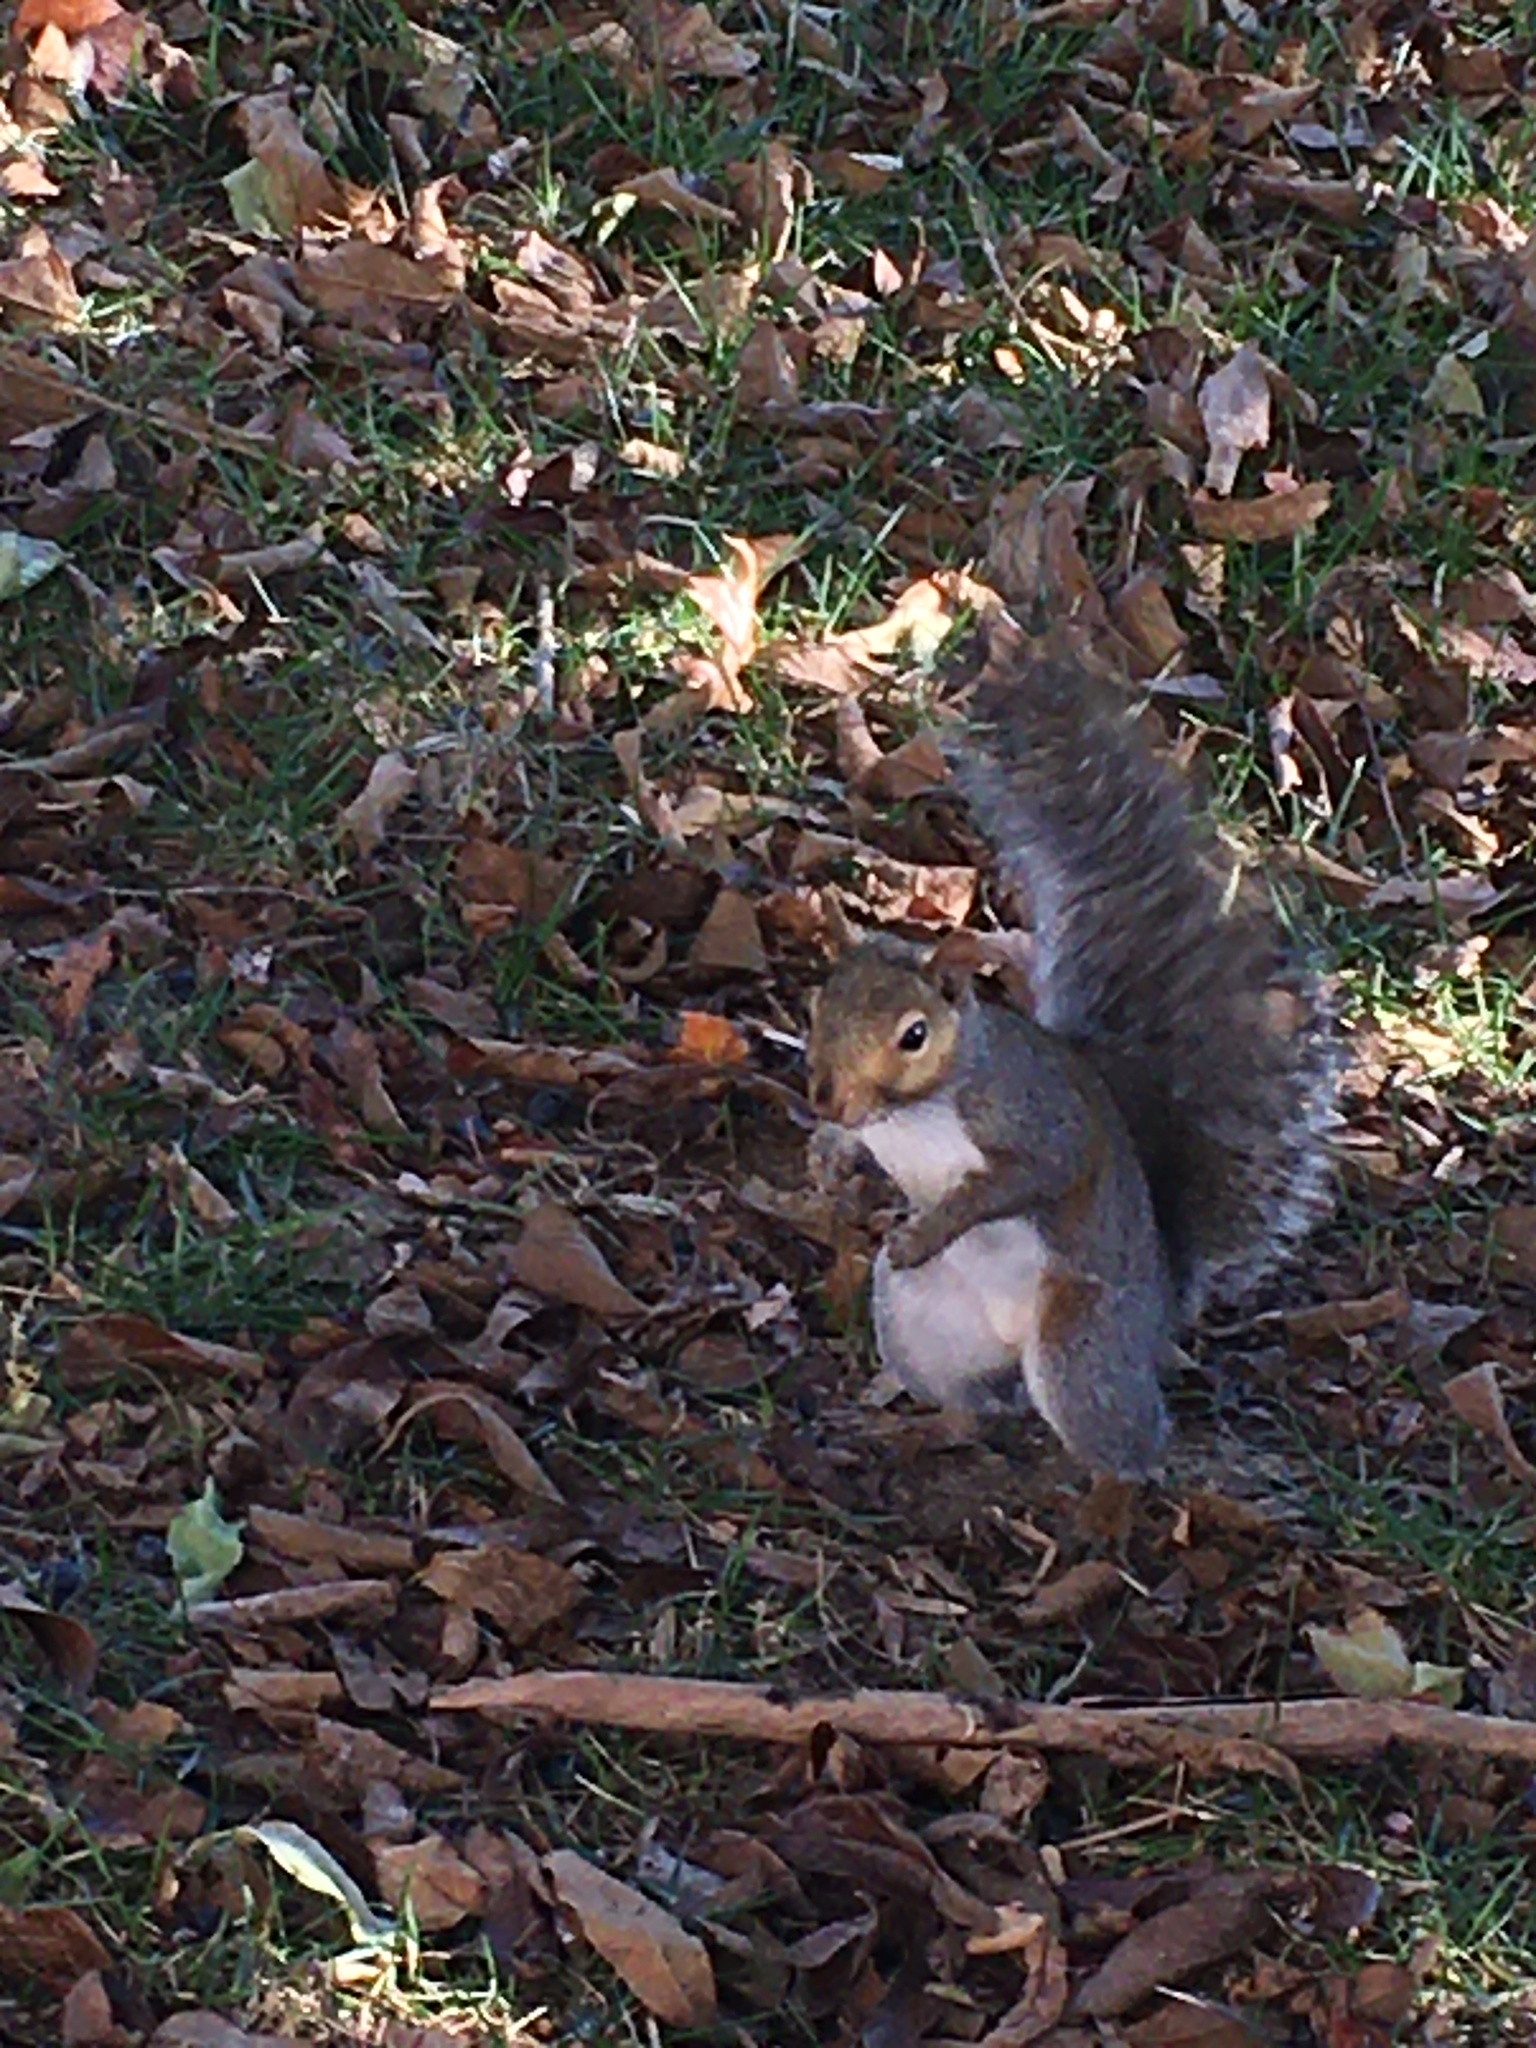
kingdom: Animalia
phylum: Chordata
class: Mammalia
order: Rodentia
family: Sciuridae
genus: Sciurus
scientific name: Sciurus carolinensis
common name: Eastern gray squirrel
